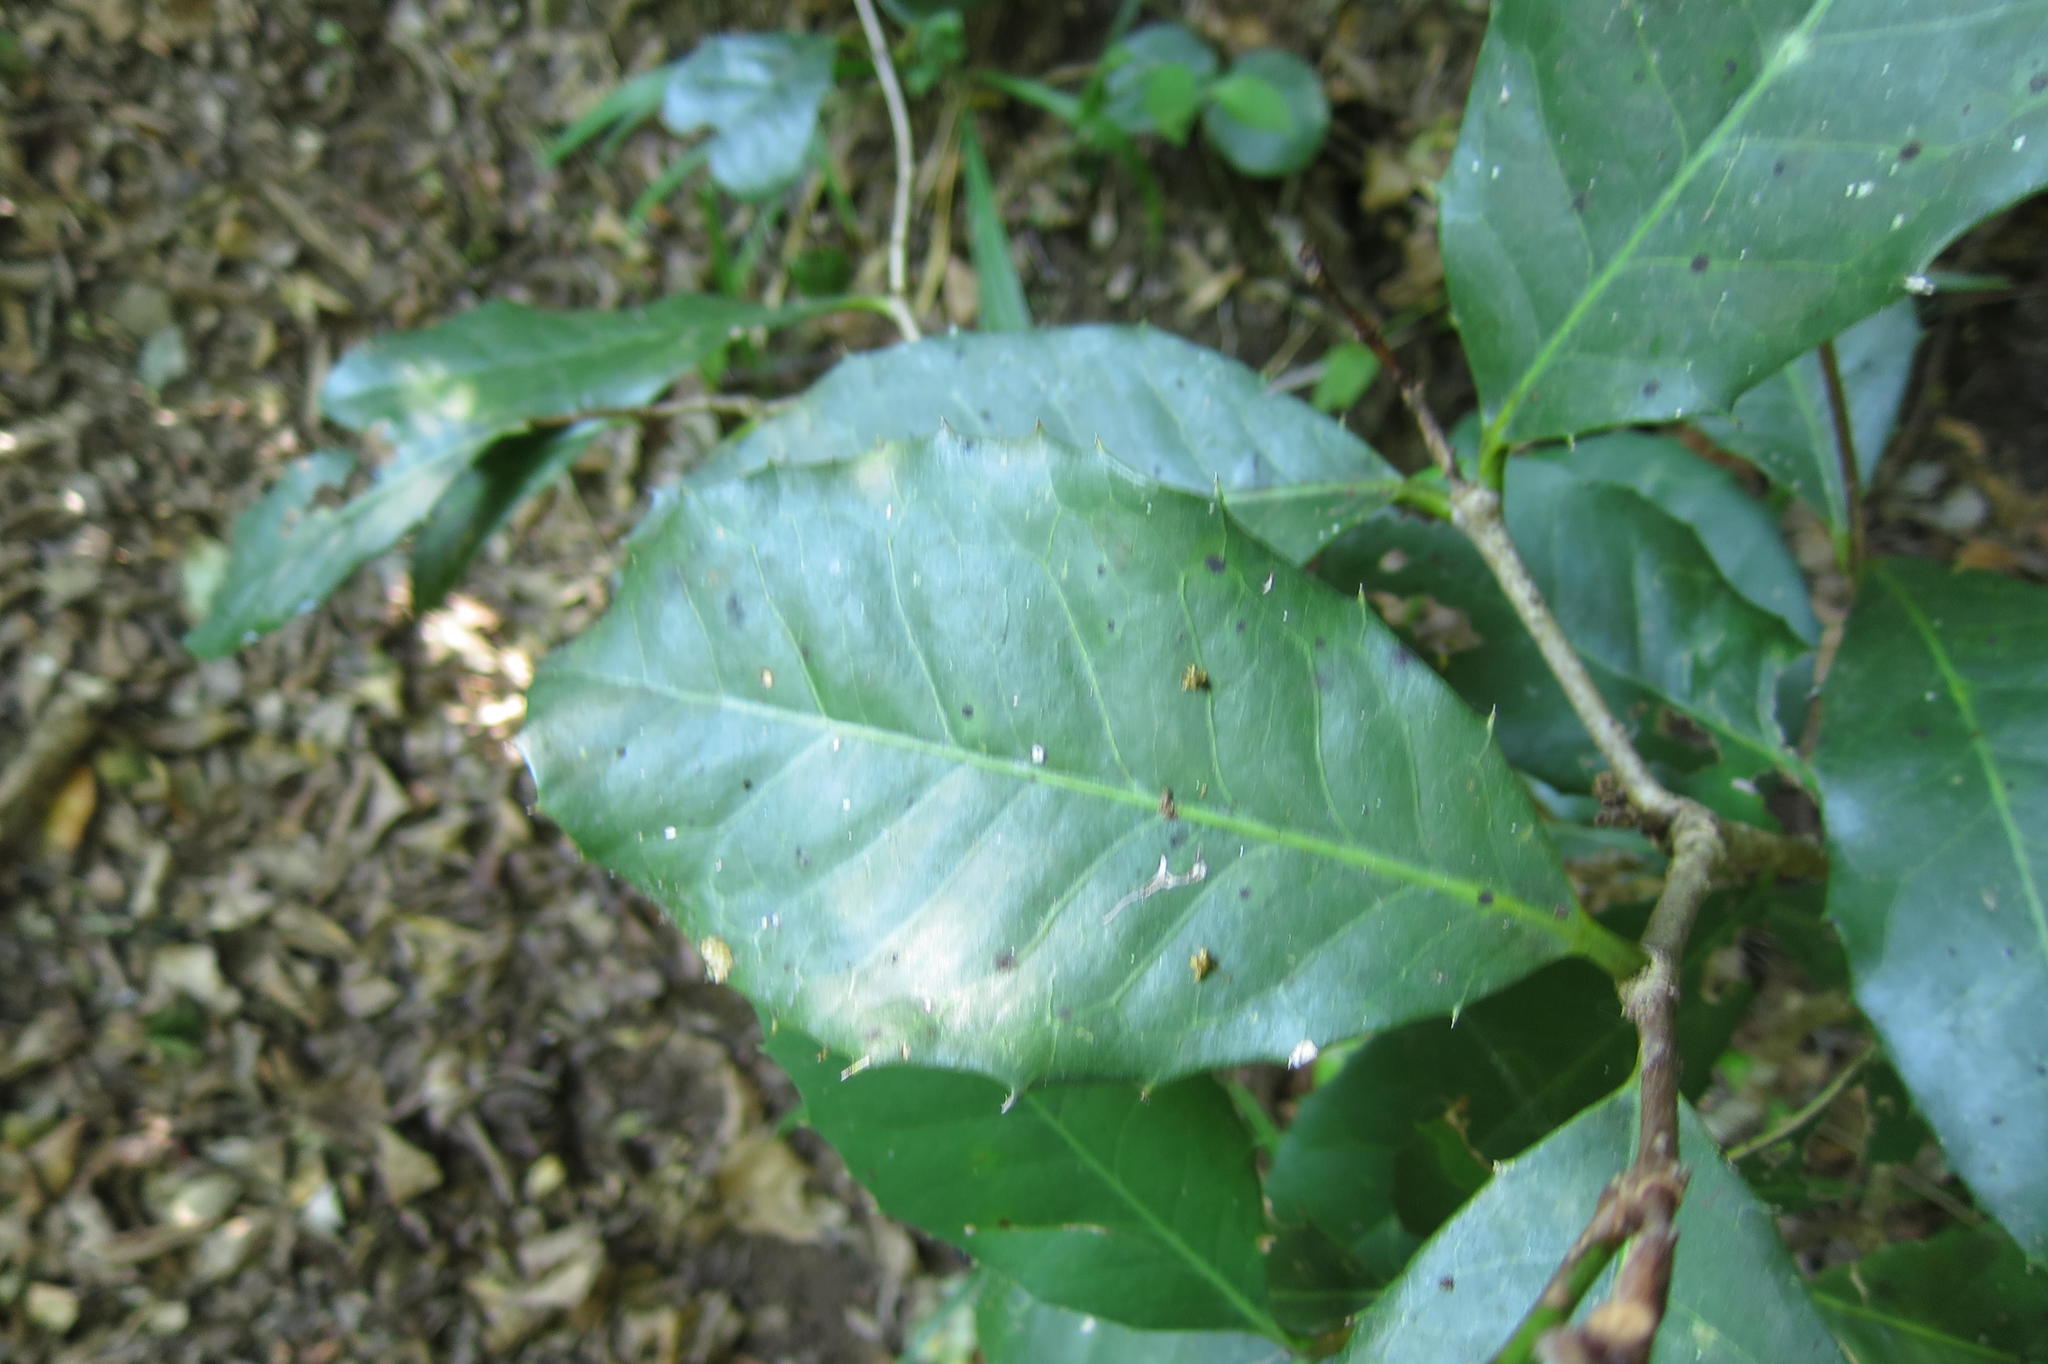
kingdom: Plantae
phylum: Tracheophyta
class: Magnoliopsida
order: Celastrales
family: Celastraceae
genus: Elaeodendron
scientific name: Elaeodendron croceum
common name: Saffron
